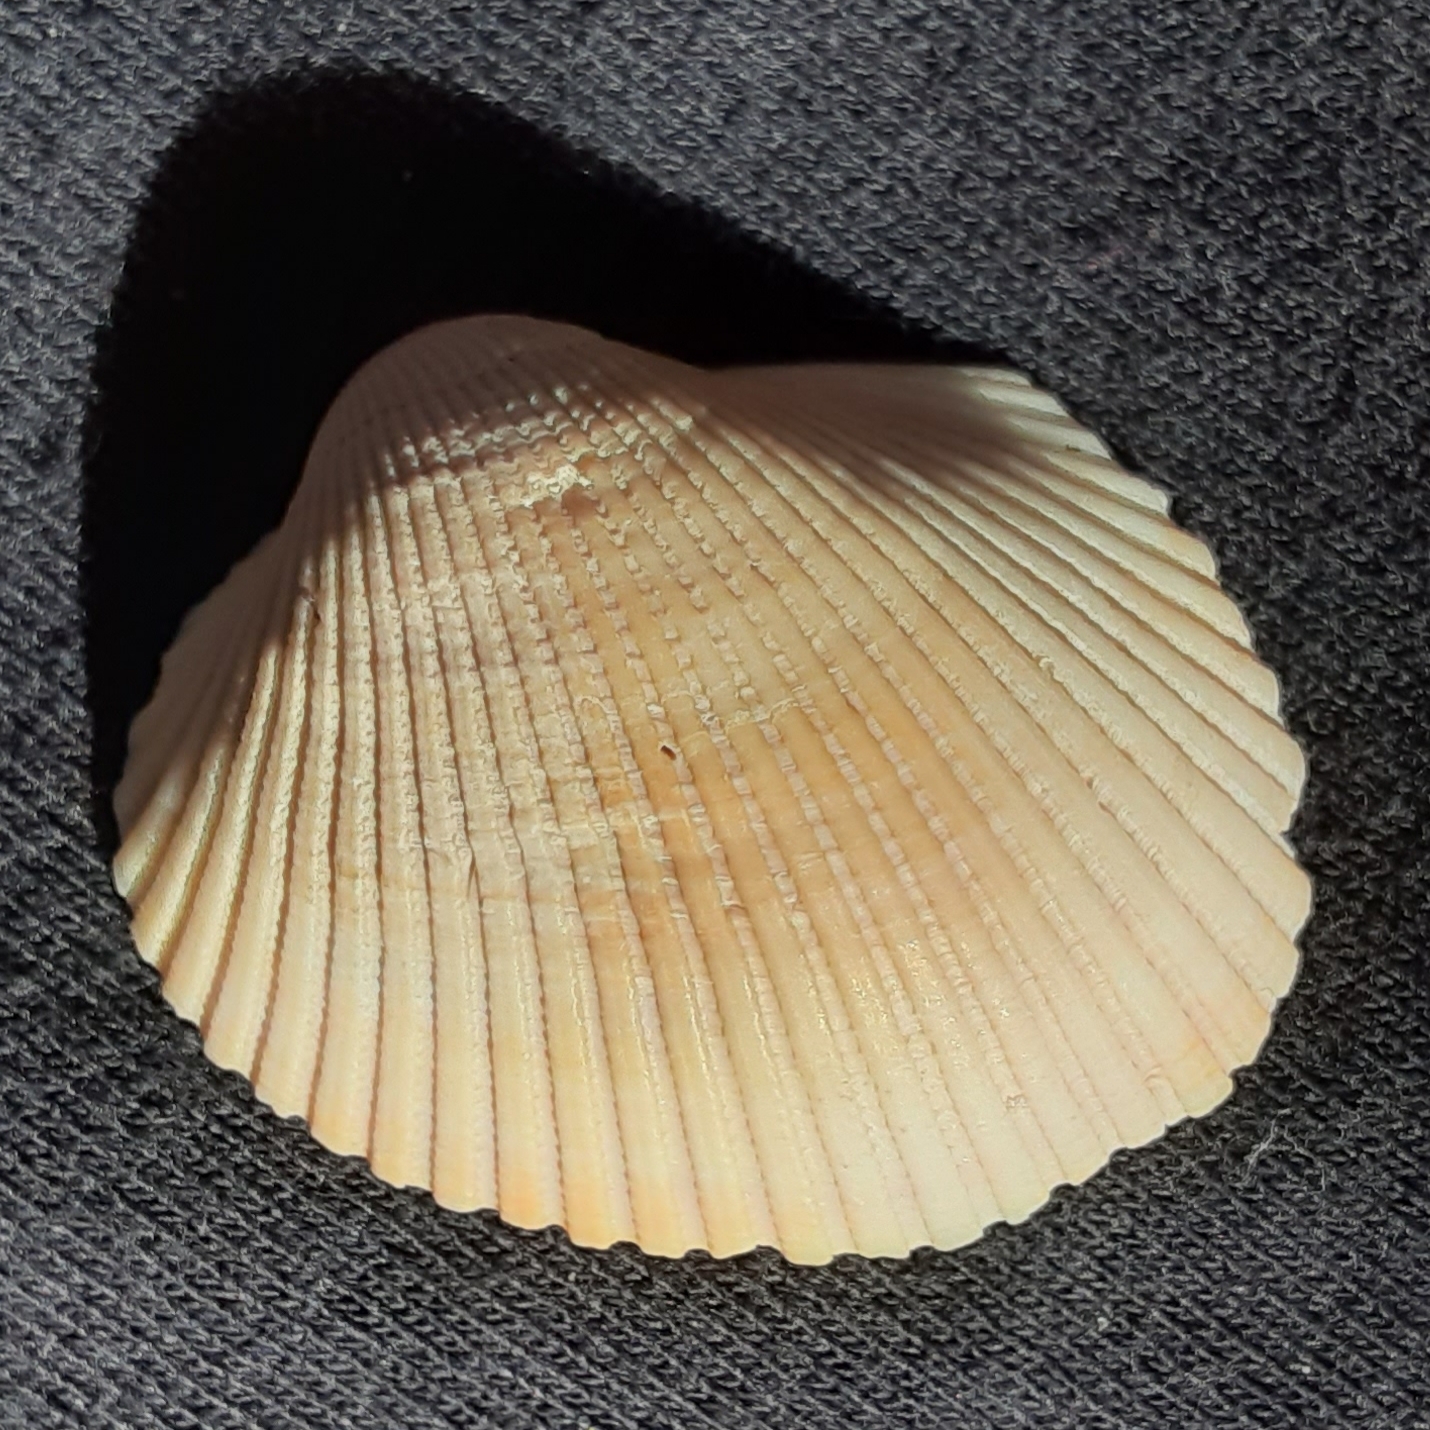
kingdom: Animalia
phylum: Mollusca
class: Bivalvia
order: Arcida
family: Arcidae
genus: Lunarca
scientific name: Lunarca ovalis
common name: Blood ark
